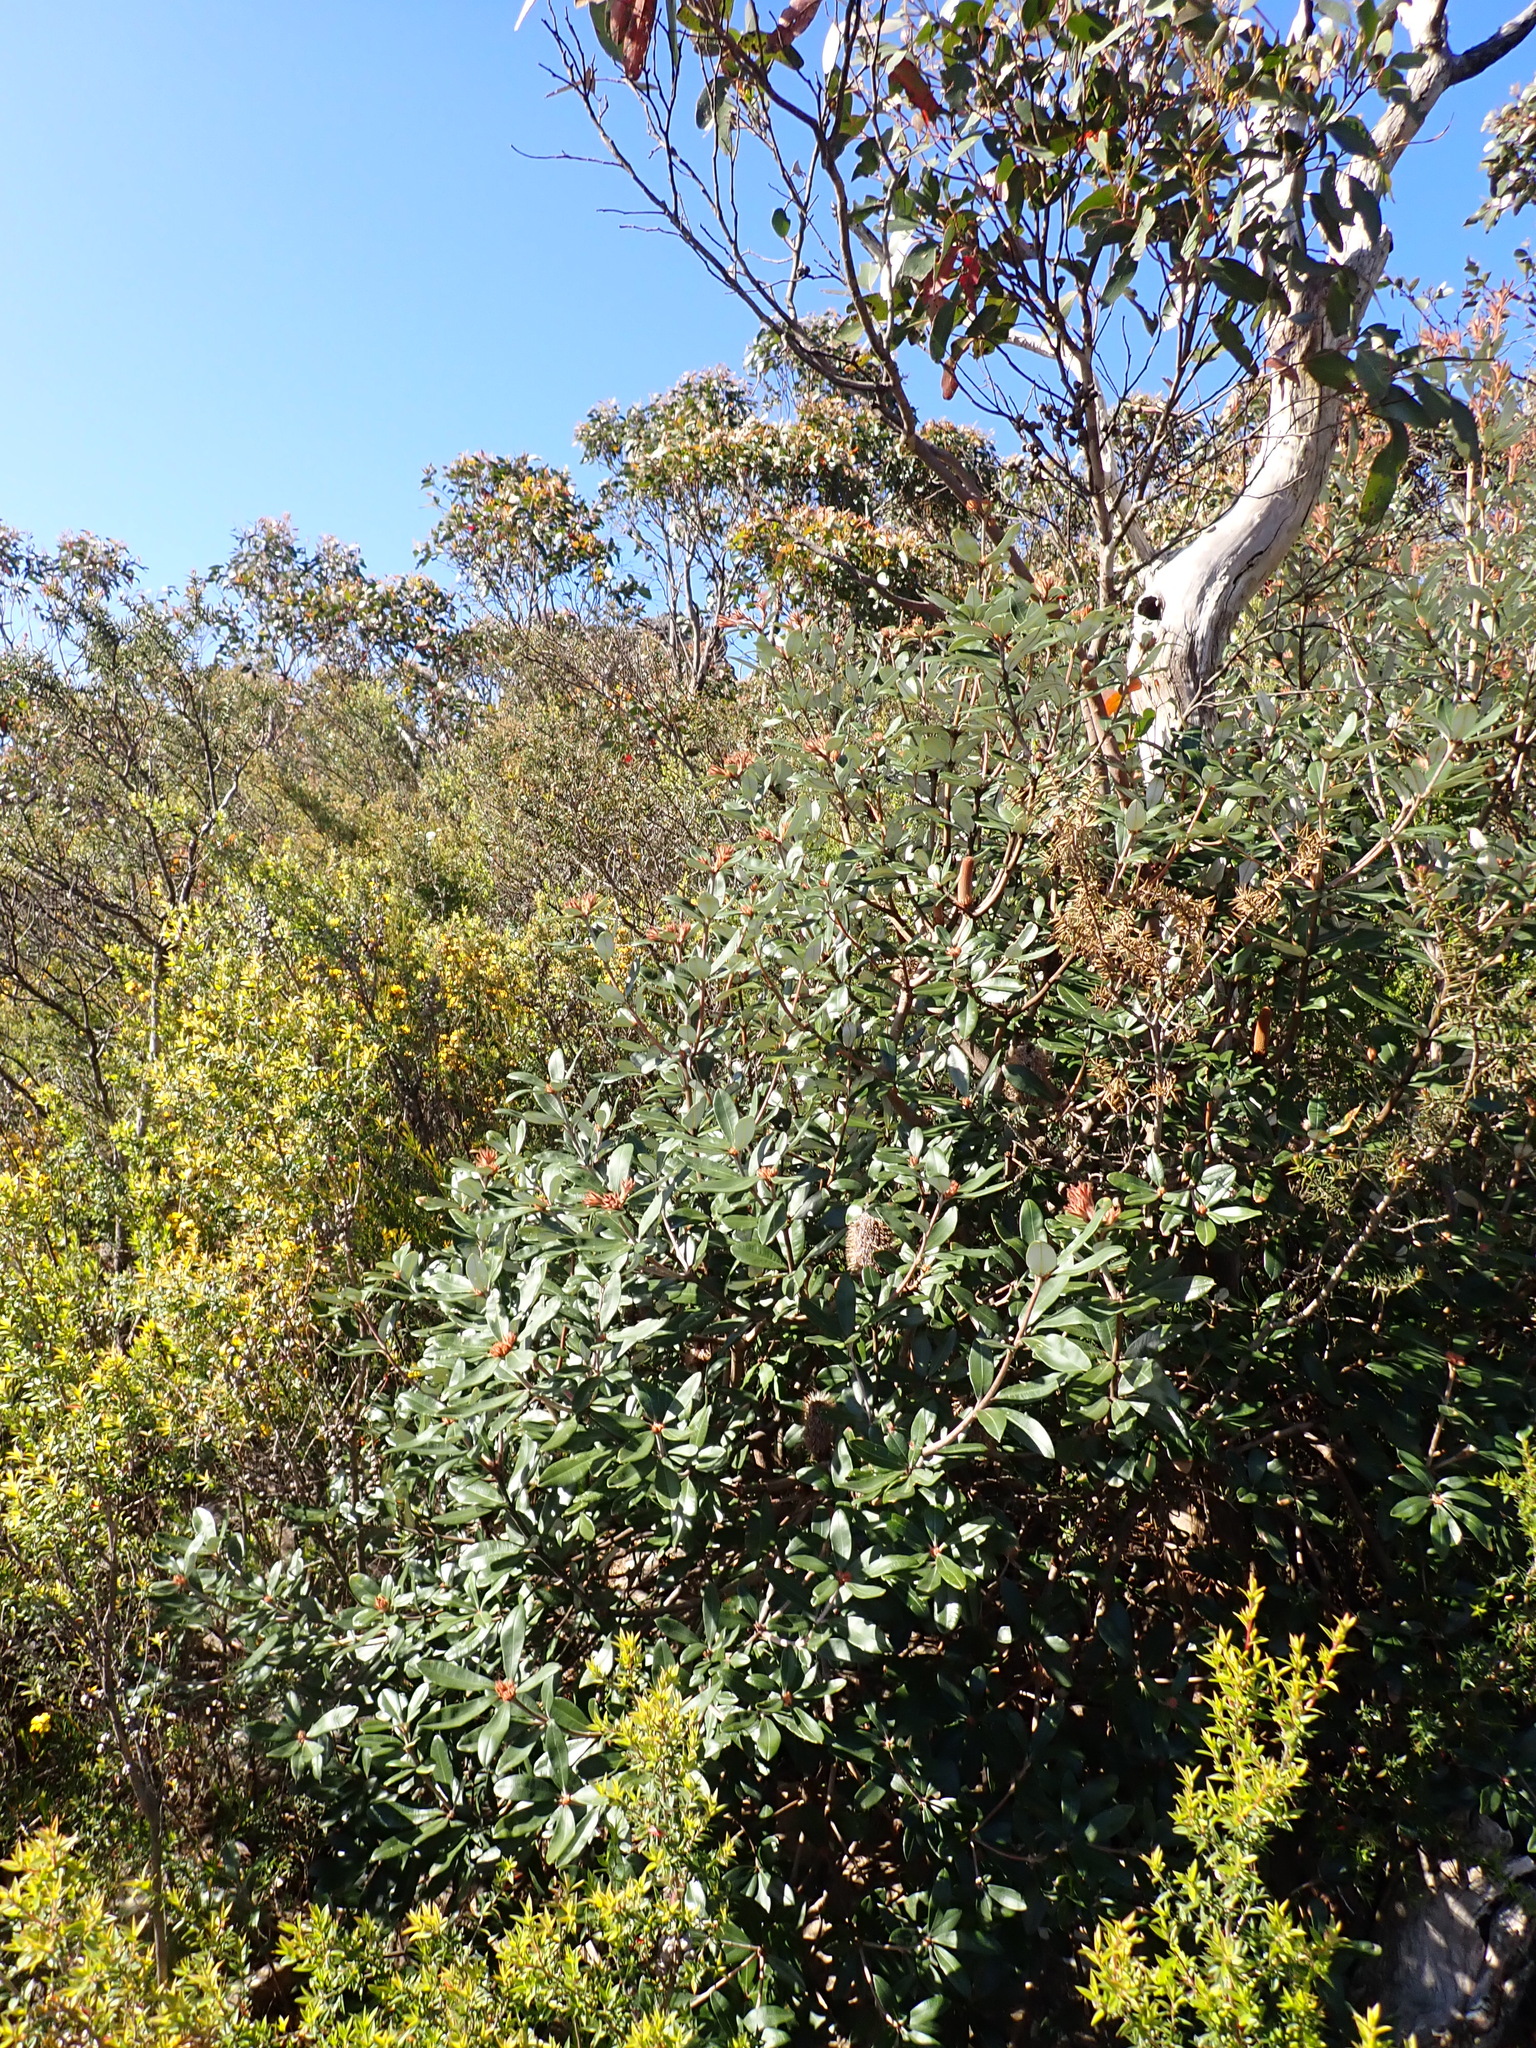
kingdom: Plantae
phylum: Tracheophyta
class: Magnoliopsida
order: Proteales
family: Proteaceae
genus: Banksia
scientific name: Banksia saxicola
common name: Grampians banksia
